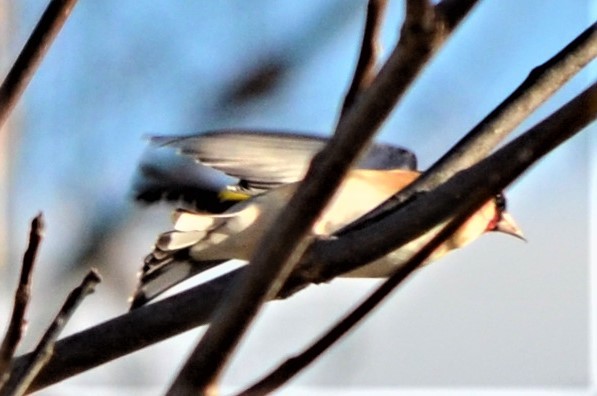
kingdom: Animalia
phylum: Chordata
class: Aves
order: Passeriformes
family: Fringillidae
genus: Carduelis
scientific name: Carduelis carduelis
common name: European goldfinch
